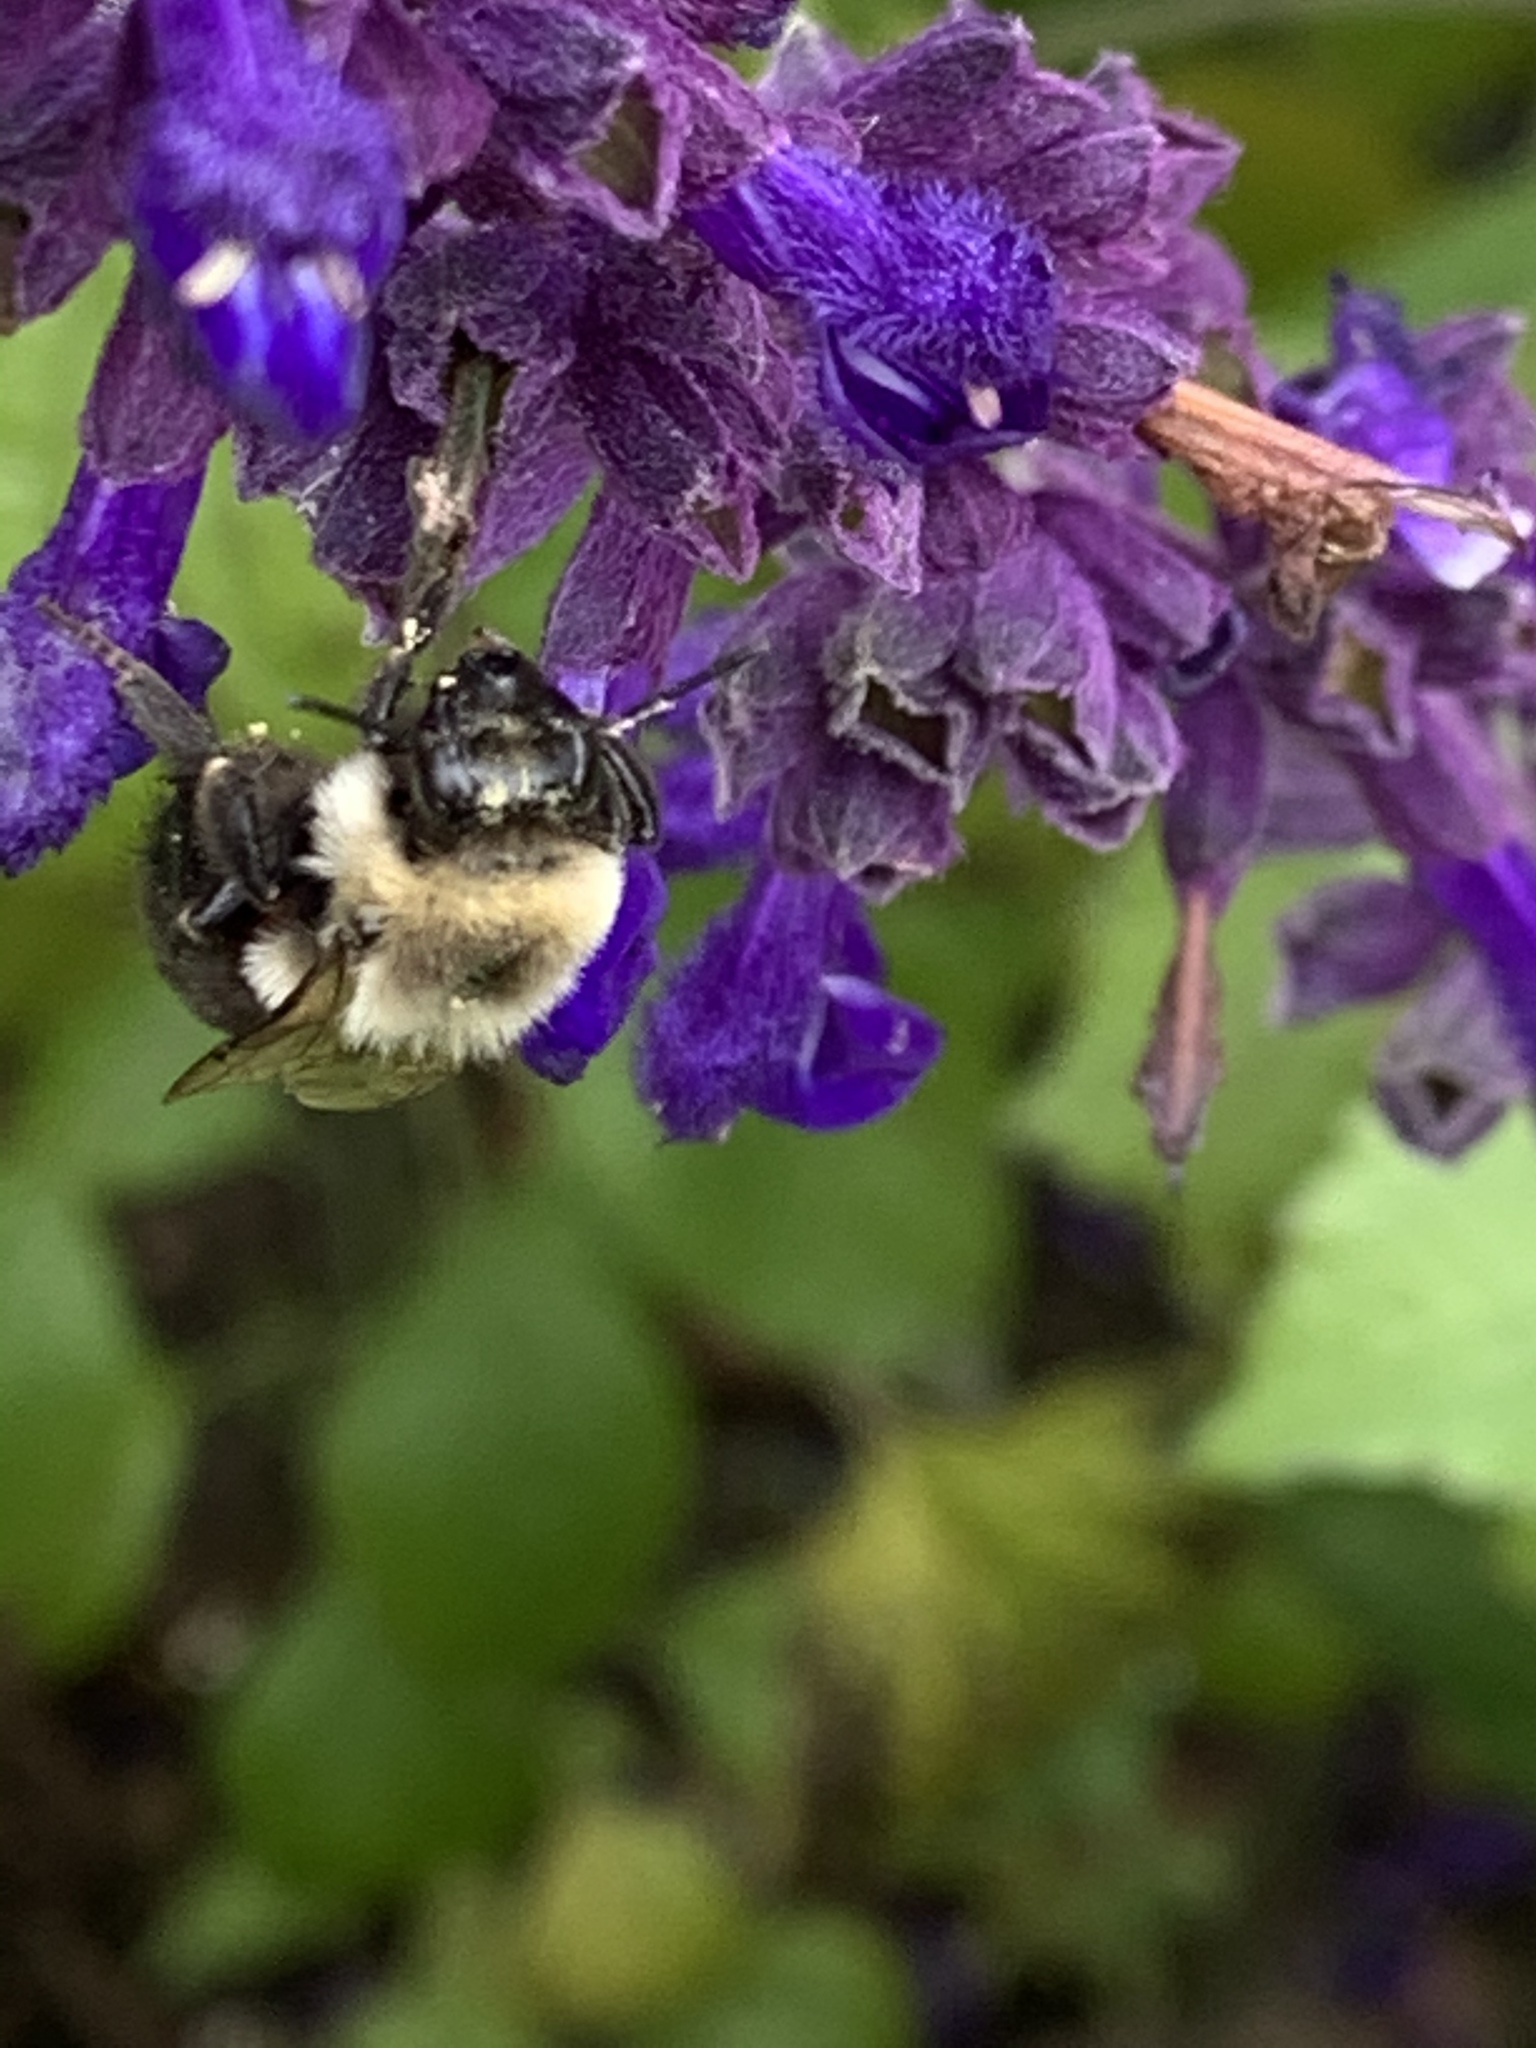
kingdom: Animalia
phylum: Arthropoda
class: Insecta
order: Hymenoptera
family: Apidae
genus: Bombus
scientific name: Bombus impatiens
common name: Common eastern bumble bee
